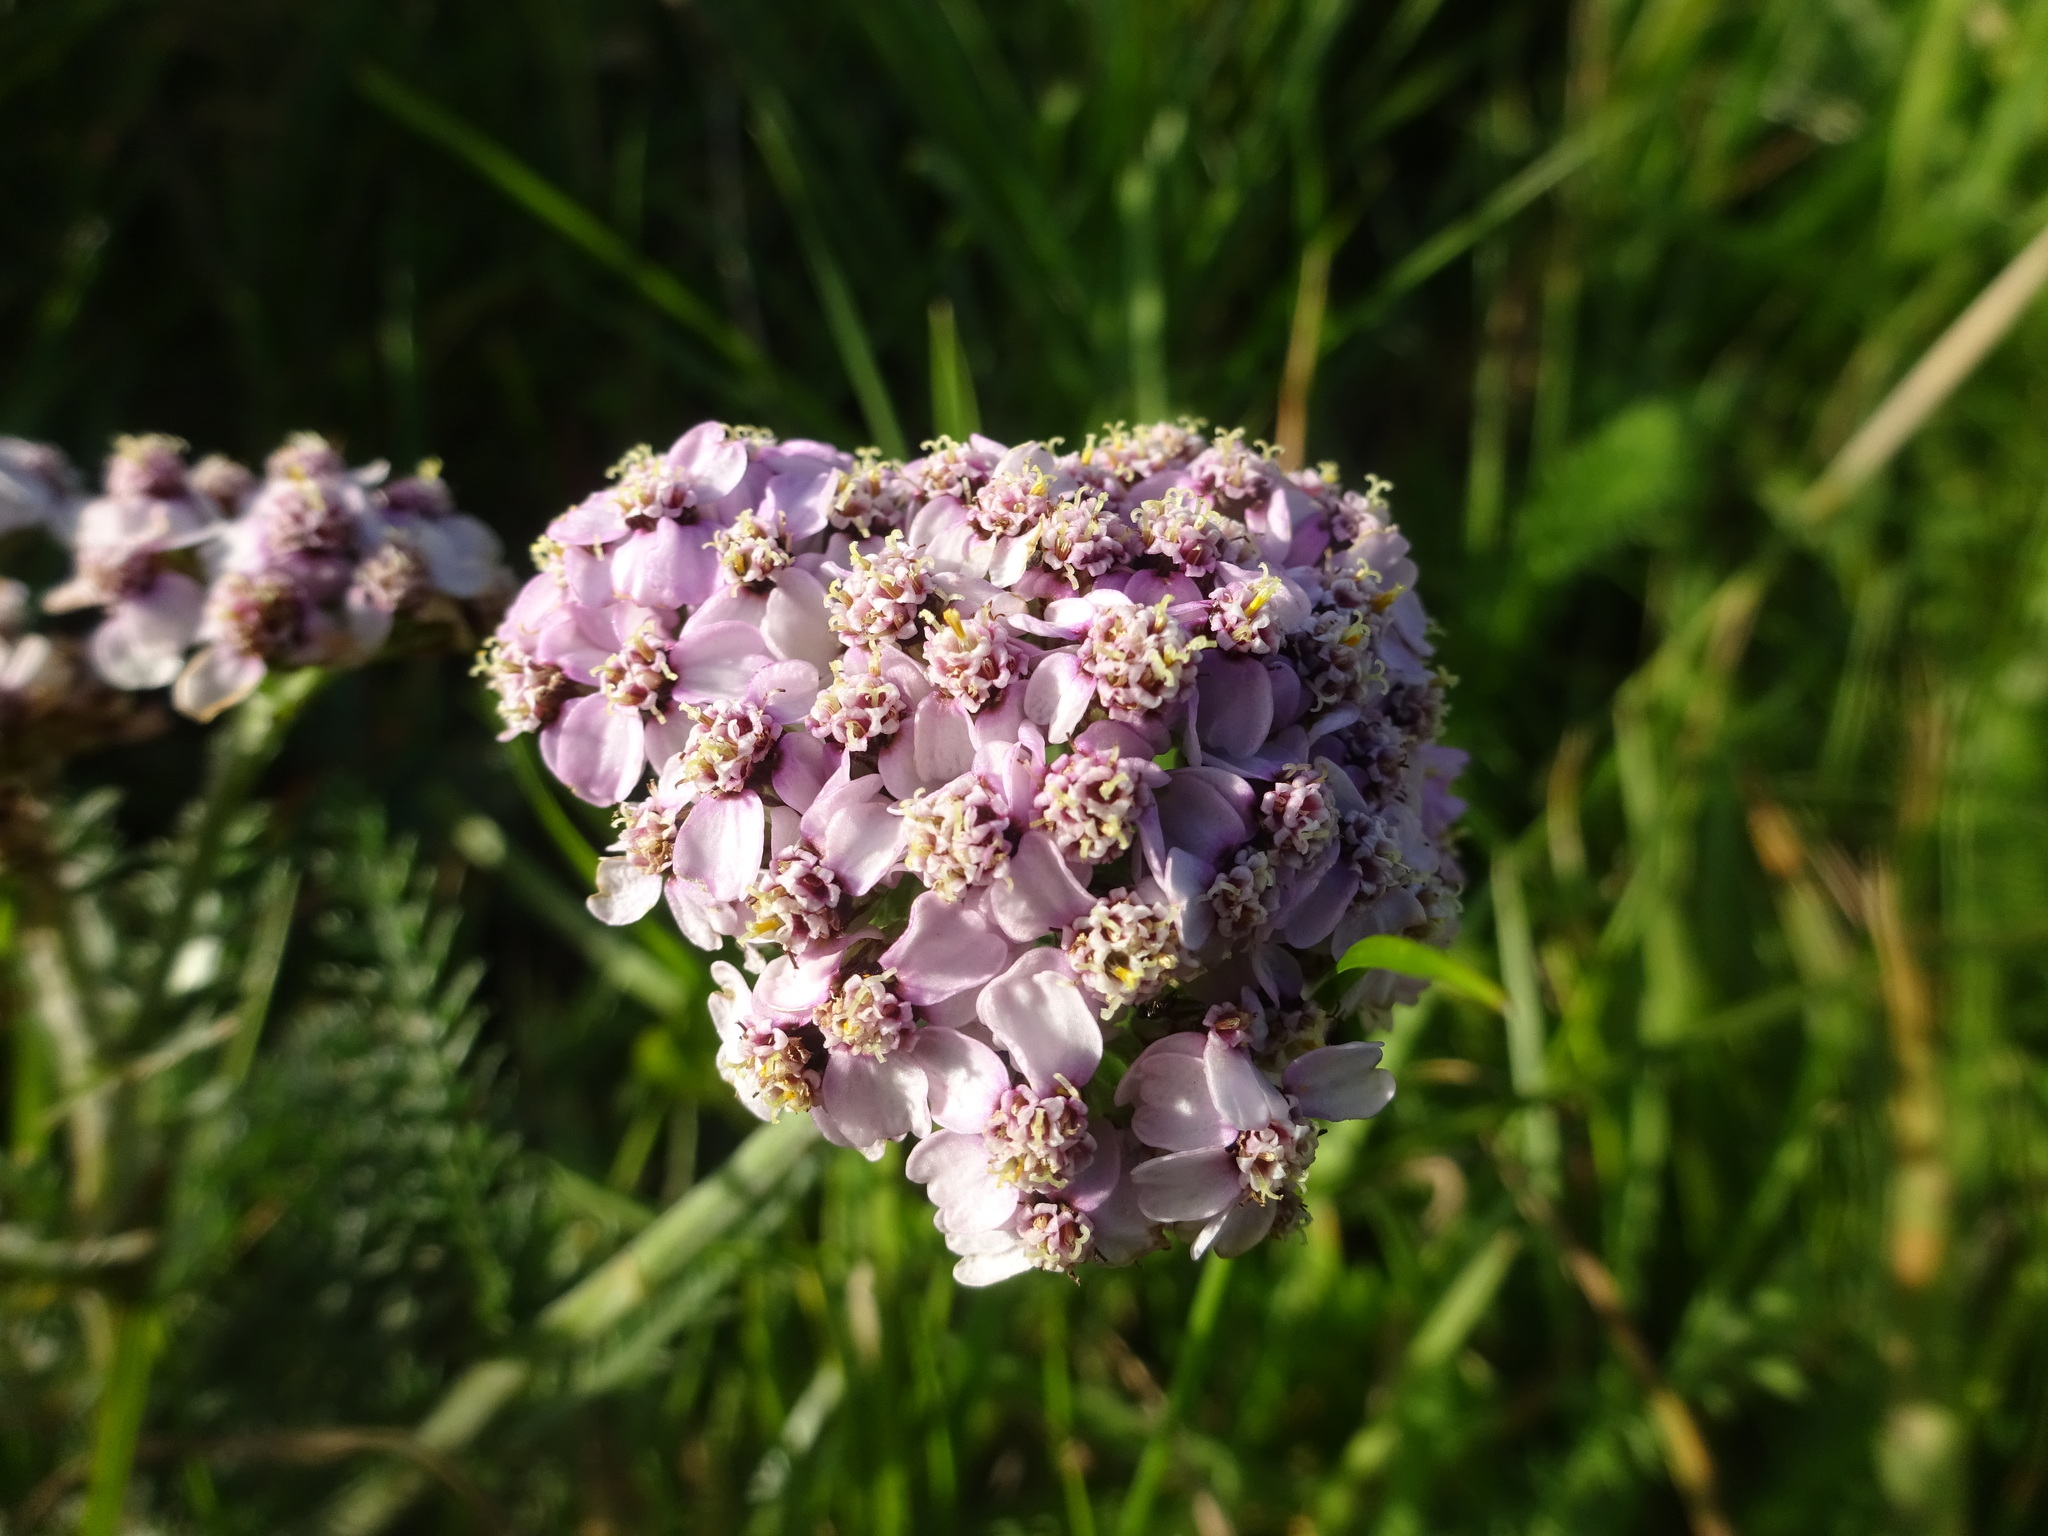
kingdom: Plantae
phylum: Tracheophyta
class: Magnoliopsida
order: Asterales
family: Asteraceae
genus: Achillea
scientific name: Achillea millefolium
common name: Yarrow
